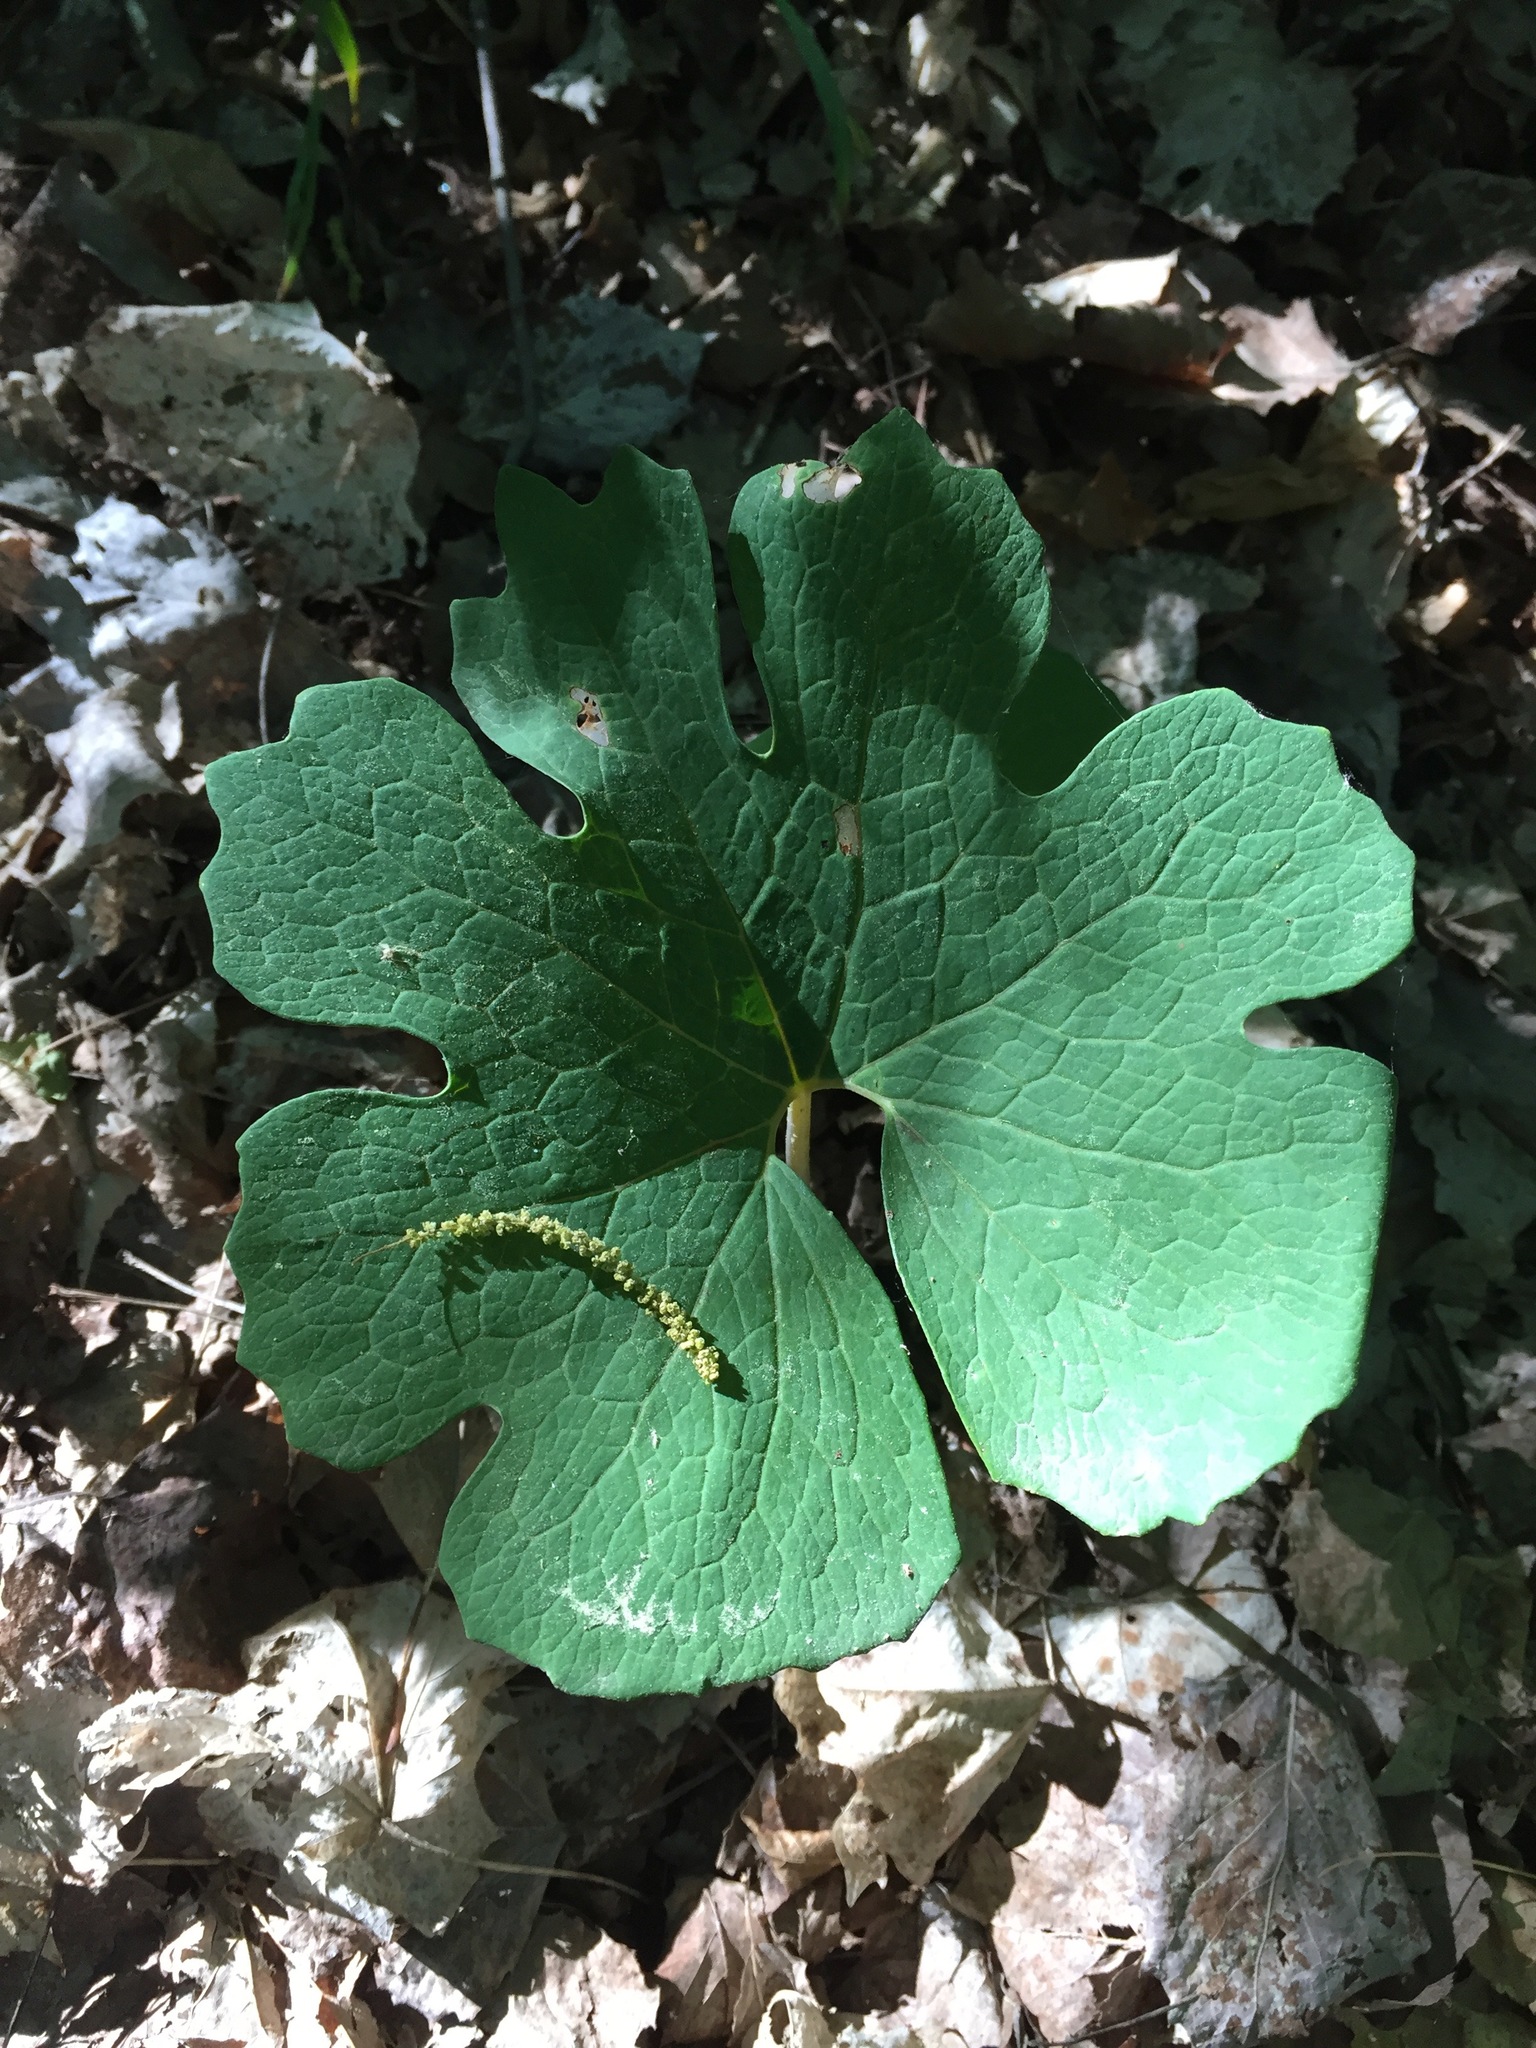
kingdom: Plantae
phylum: Tracheophyta
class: Magnoliopsida
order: Ranunculales
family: Papaveraceae
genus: Sanguinaria
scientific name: Sanguinaria canadensis
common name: Bloodroot
